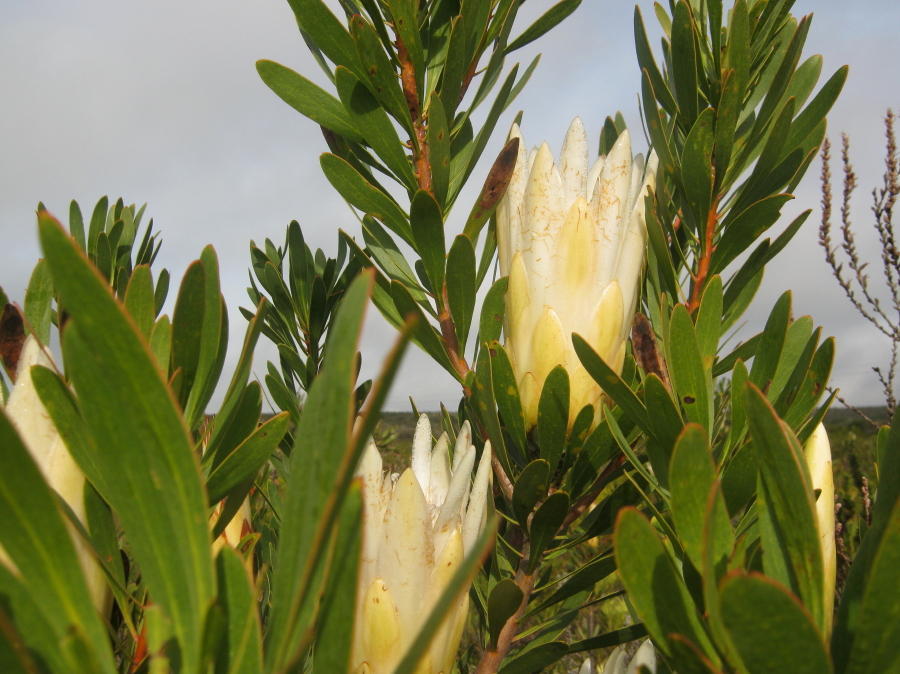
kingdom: Plantae
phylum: Tracheophyta
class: Magnoliopsida
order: Proteales
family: Proteaceae
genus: Protea
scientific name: Protea repens
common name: Sugarbush
